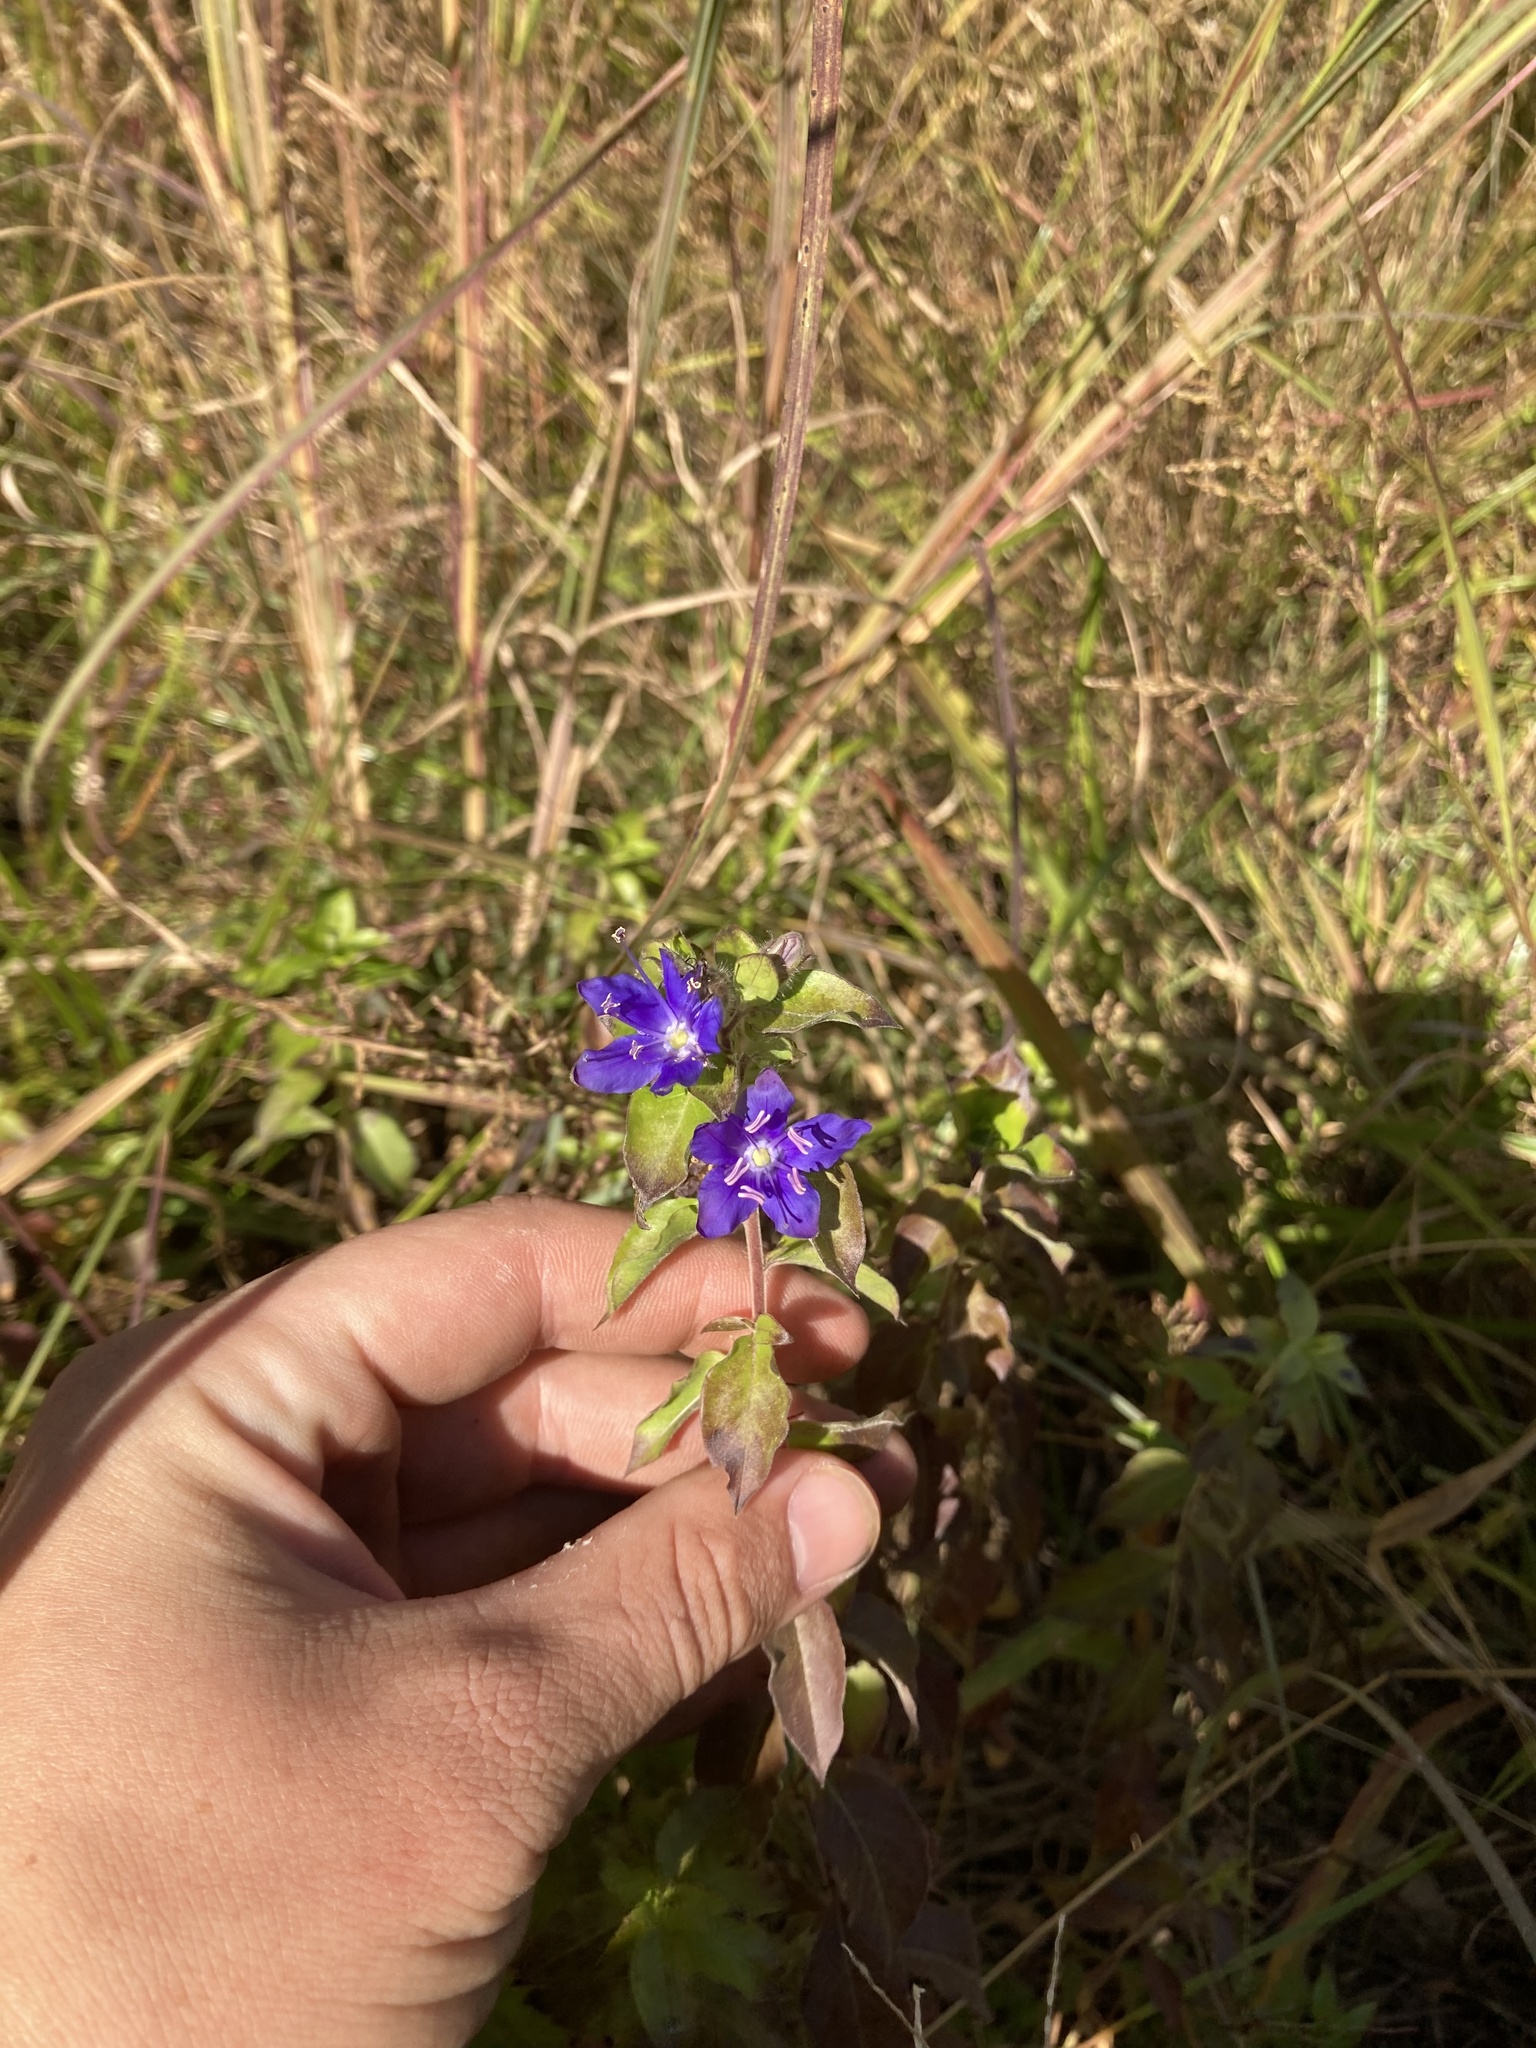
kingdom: Plantae
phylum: Tracheophyta
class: Magnoliopsida
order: Solanales
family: Hydroleaceae
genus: Hydrolea
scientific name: Hydrolea ovata
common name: Ovate false fiddleleaf
